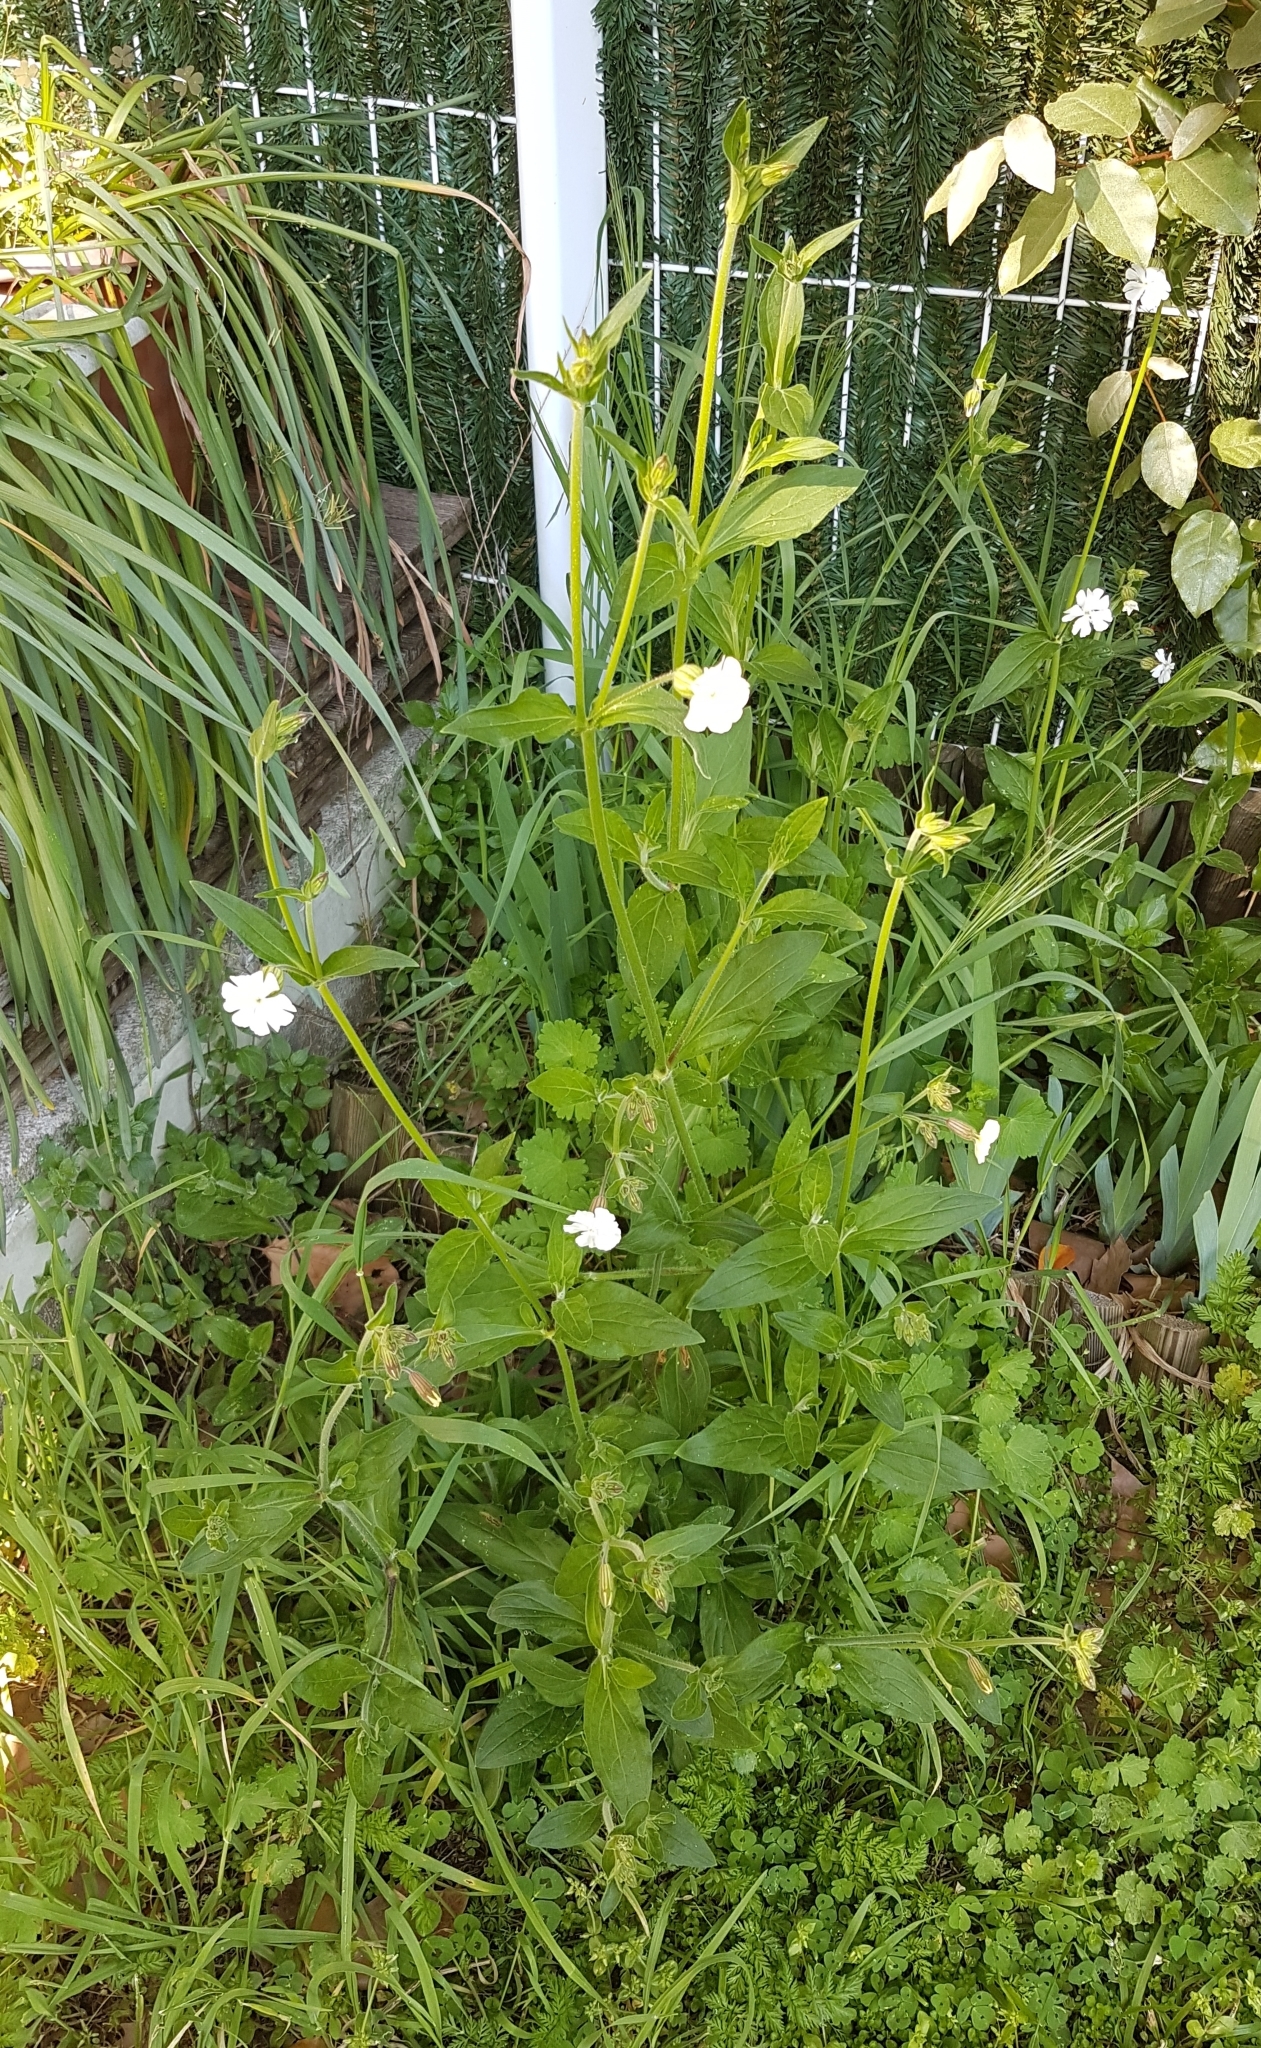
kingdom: Plantae
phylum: Tracheophyta
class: Magnoliopsida
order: Caryophyllales
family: Caryophyllaceae
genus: Silene
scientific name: Silene latifolia
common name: White campion
